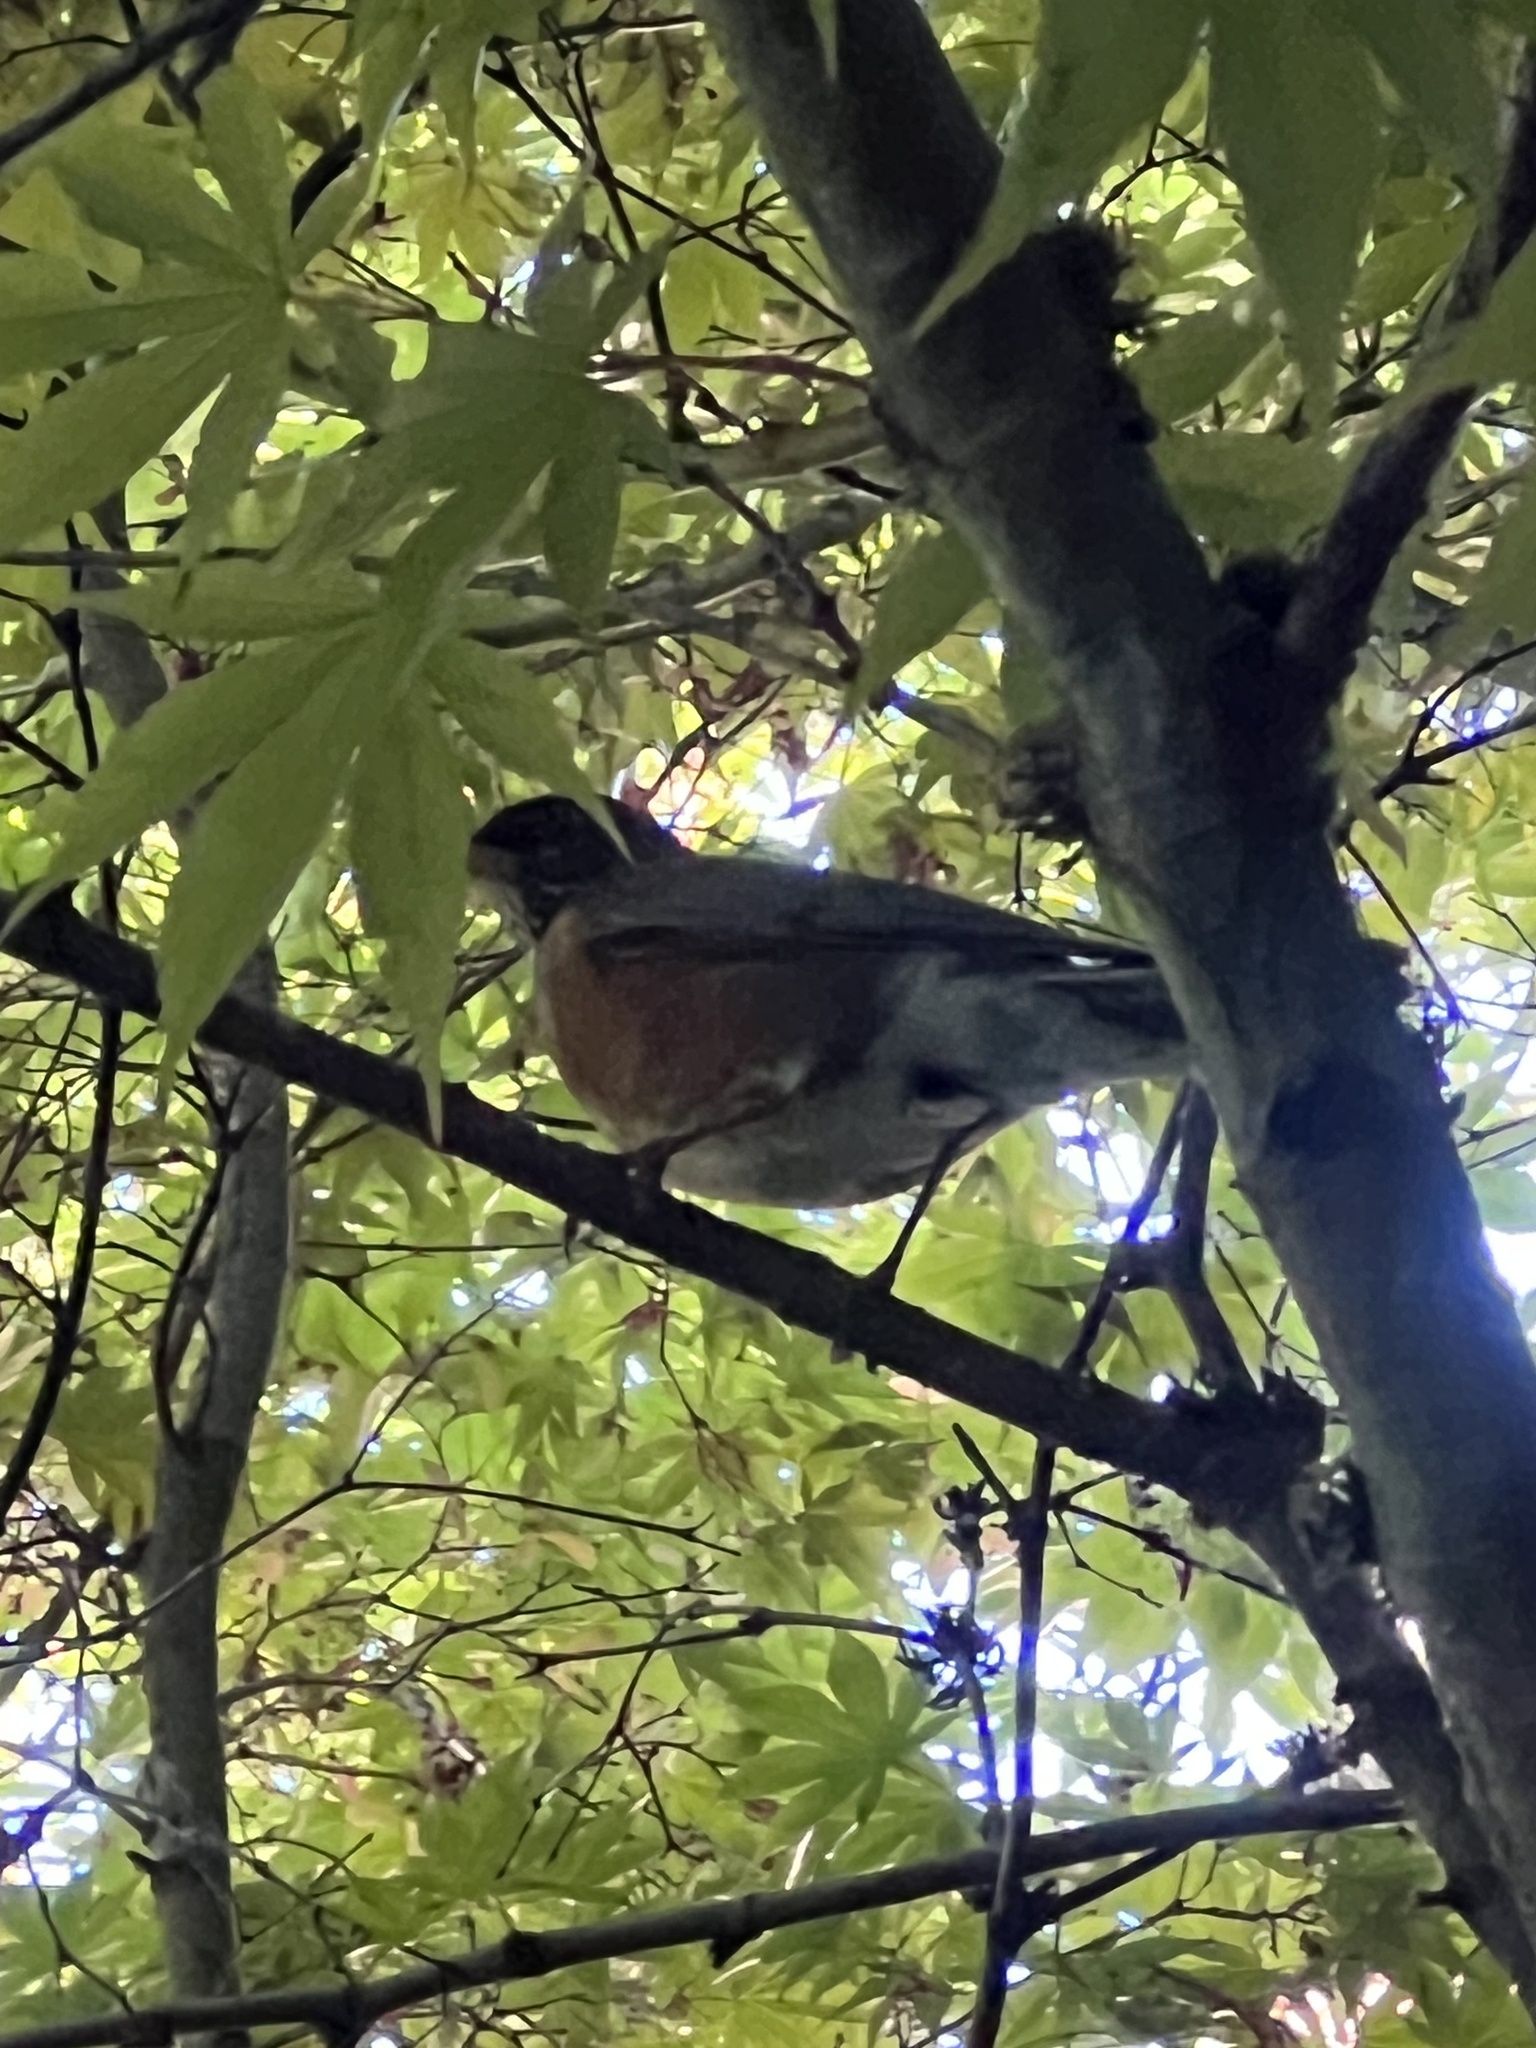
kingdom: Animalia
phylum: Chordata
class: Aves
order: Passeriformes
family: Turdidae
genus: Turdus
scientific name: Turdus migratorius
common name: American robin
